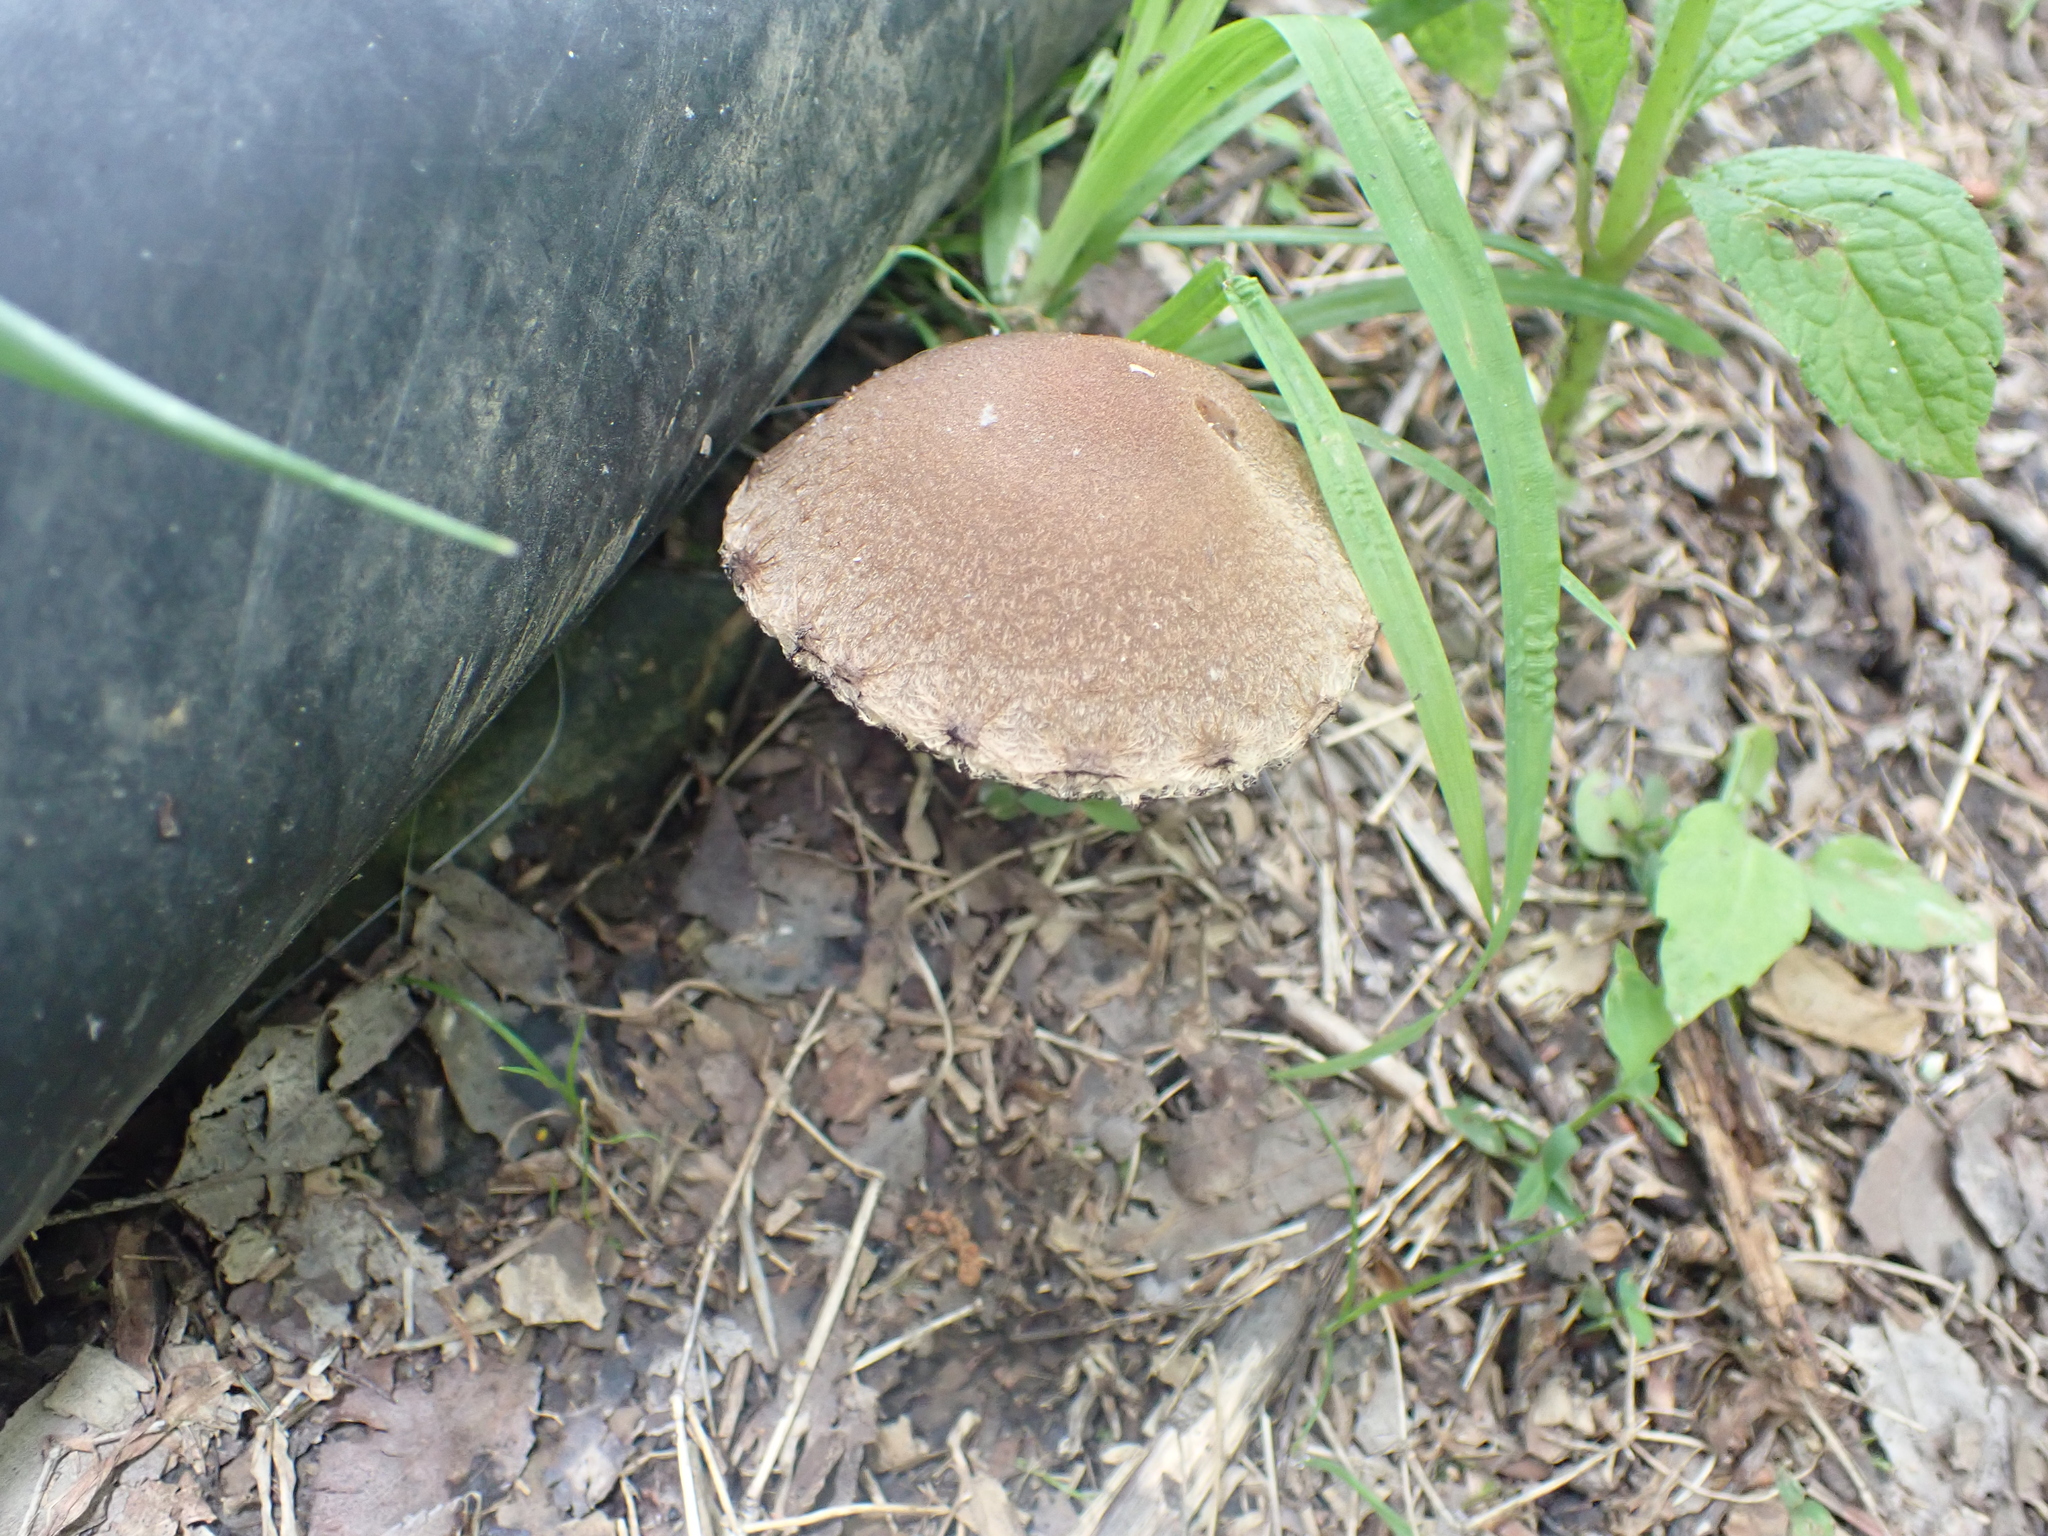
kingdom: Fungi
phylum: Basidiomycota
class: Agaricomycetes
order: Agaricales
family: Psathyrellaceae
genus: Lacrymaria
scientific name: Lacrymaria lacrymabunda
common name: Weeping widow
